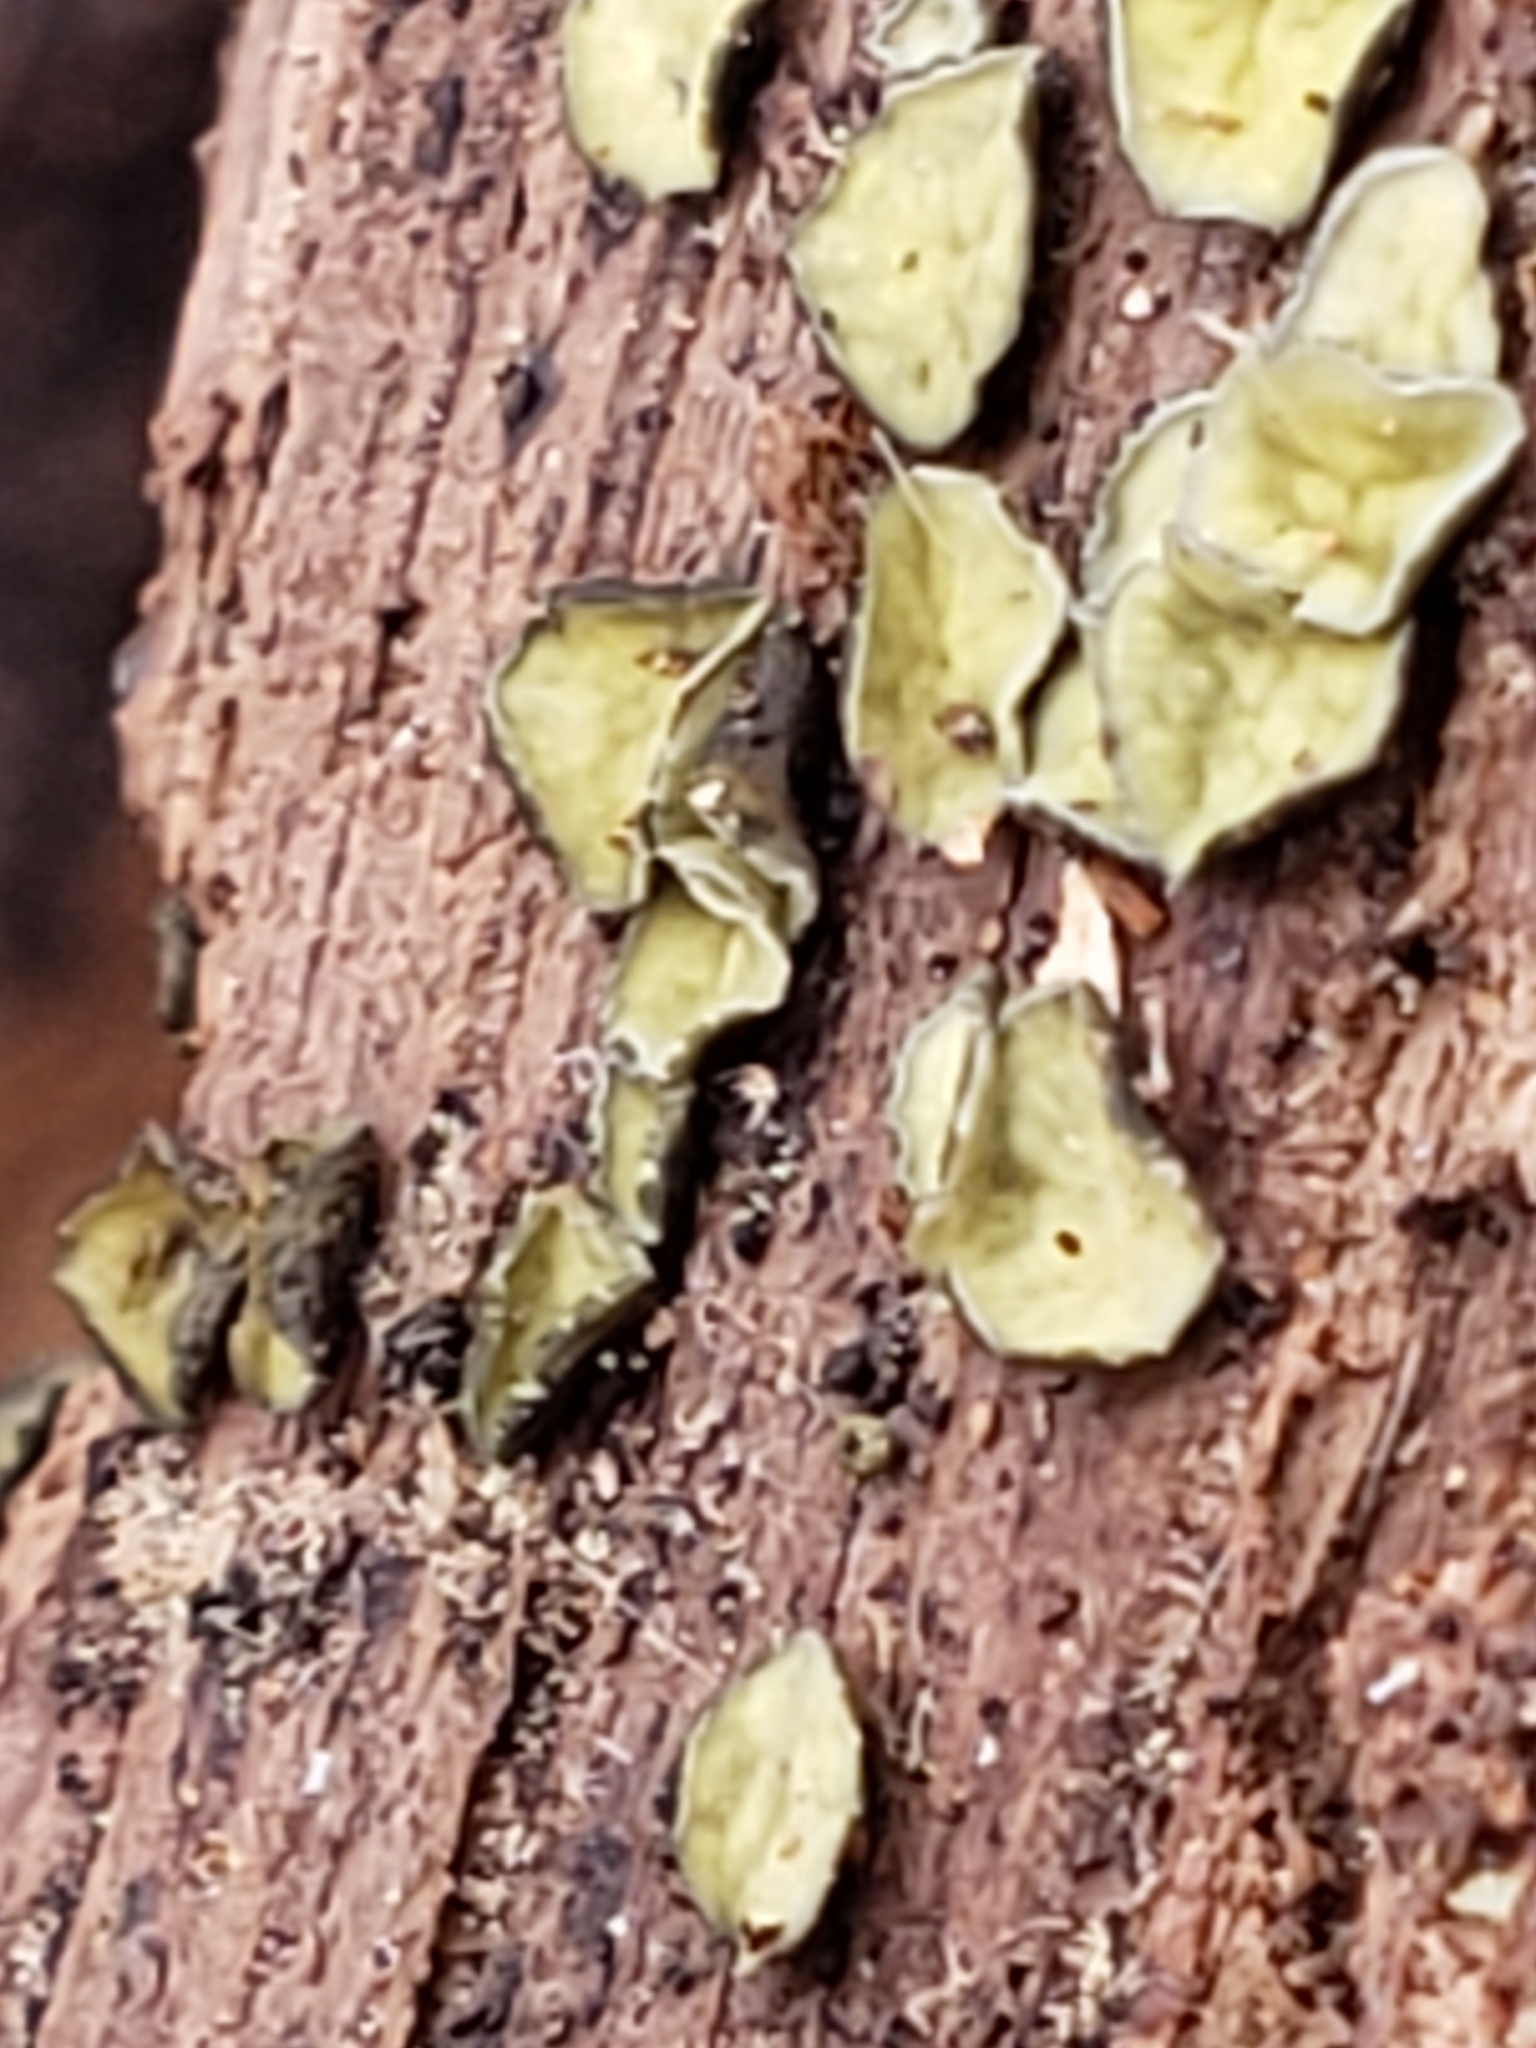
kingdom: Fungi
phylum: Ascomycota
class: Leotiomycetes
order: Helotiales
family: Chlorospleniaceae
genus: Chlorosplenium
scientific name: Chlorosplenium chlora
